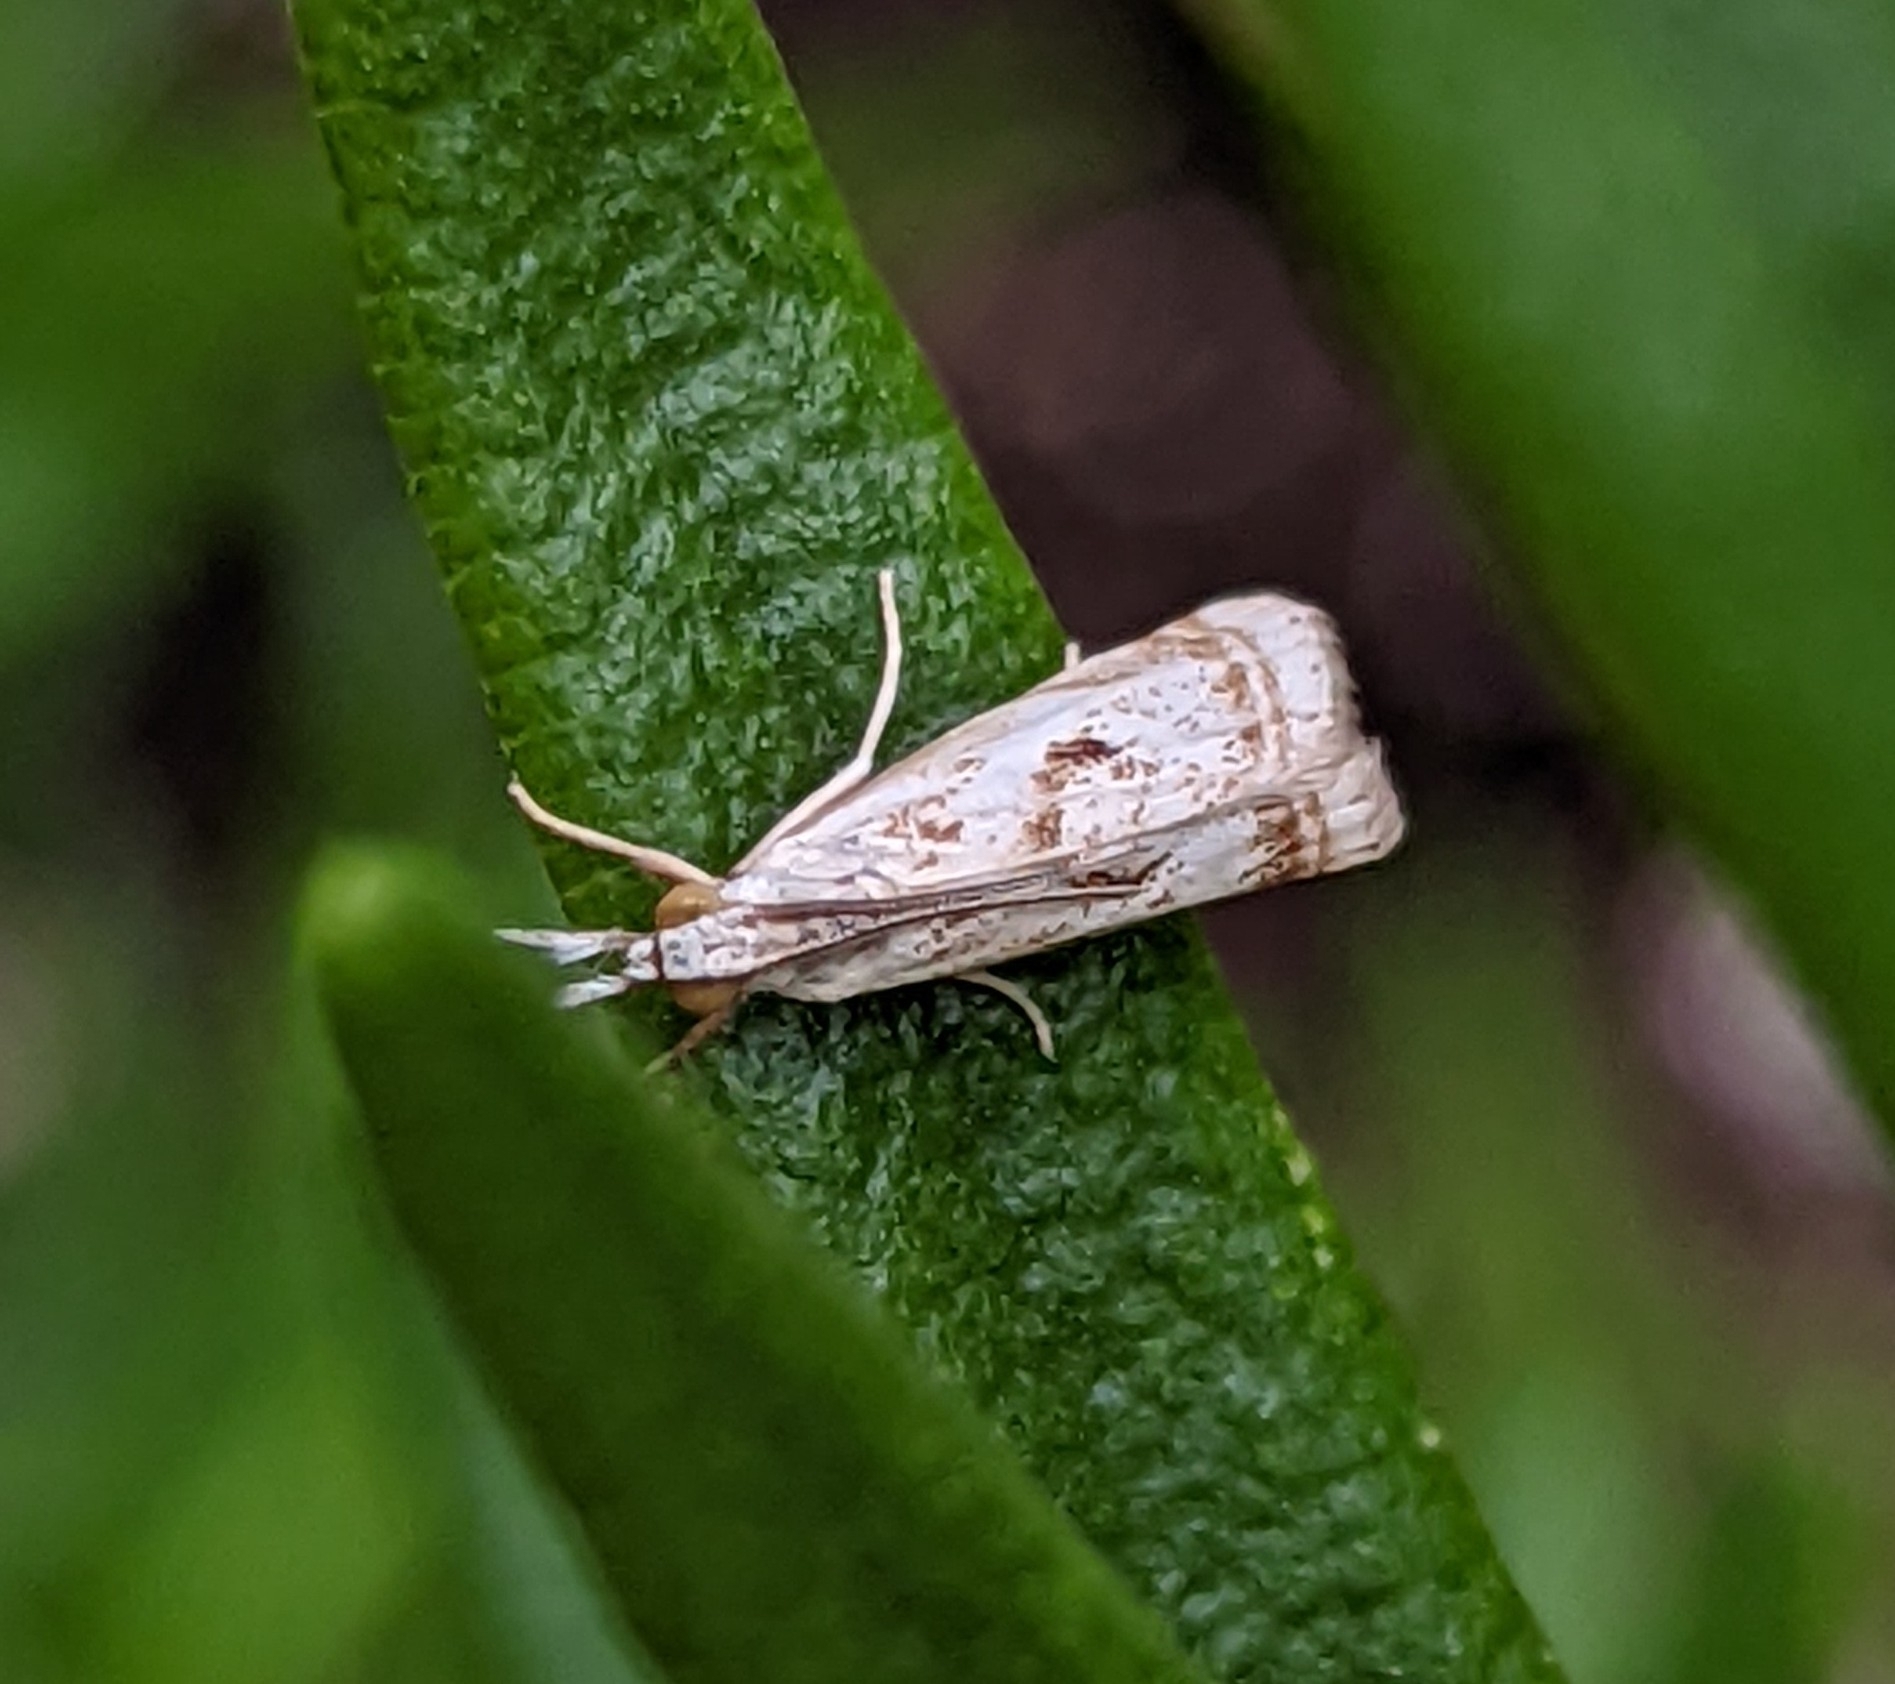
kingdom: Animalia
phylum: Arthropoda
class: Insecta
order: Lepidoptera
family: Crambidae
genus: Microcrambus
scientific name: Microcrambus elegans
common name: Elegant grass-veneer
